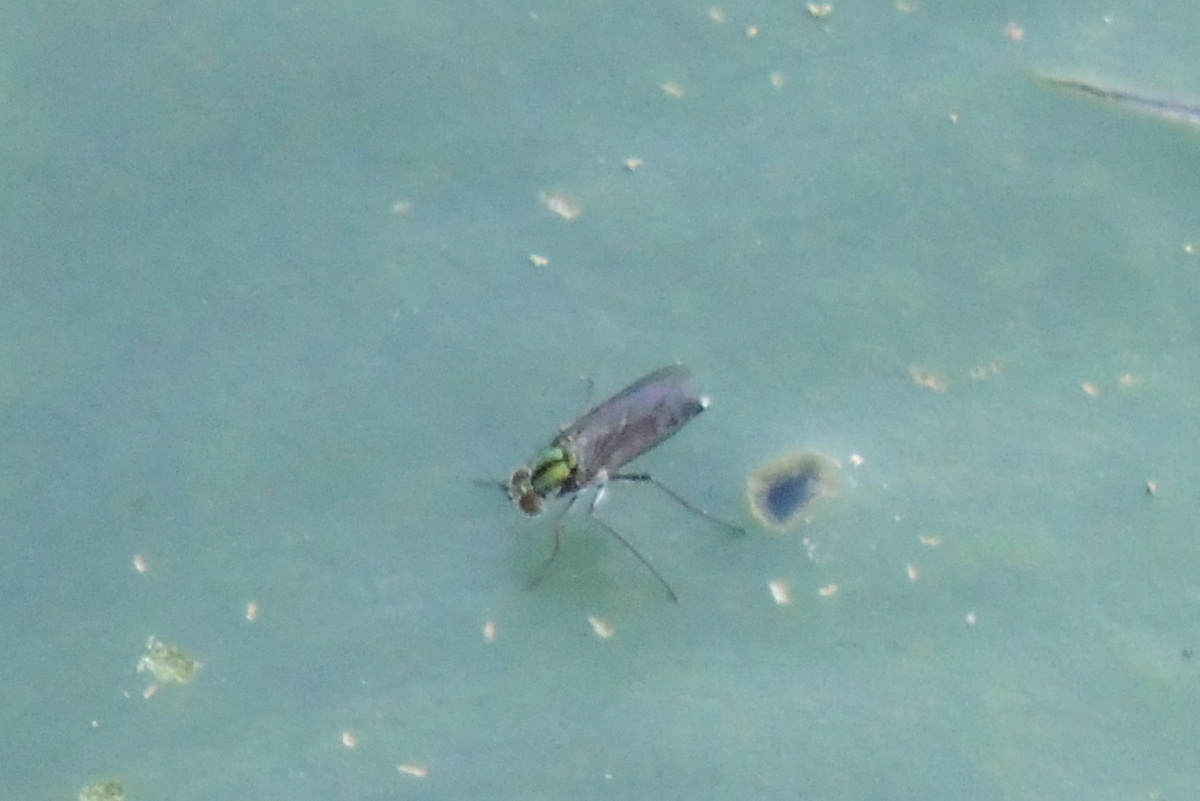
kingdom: Animalia
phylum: Arthropoda
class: Insecta
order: Diptera
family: Dolichopodidae
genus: Plagioneurus
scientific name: Plagioneurus univittatus
